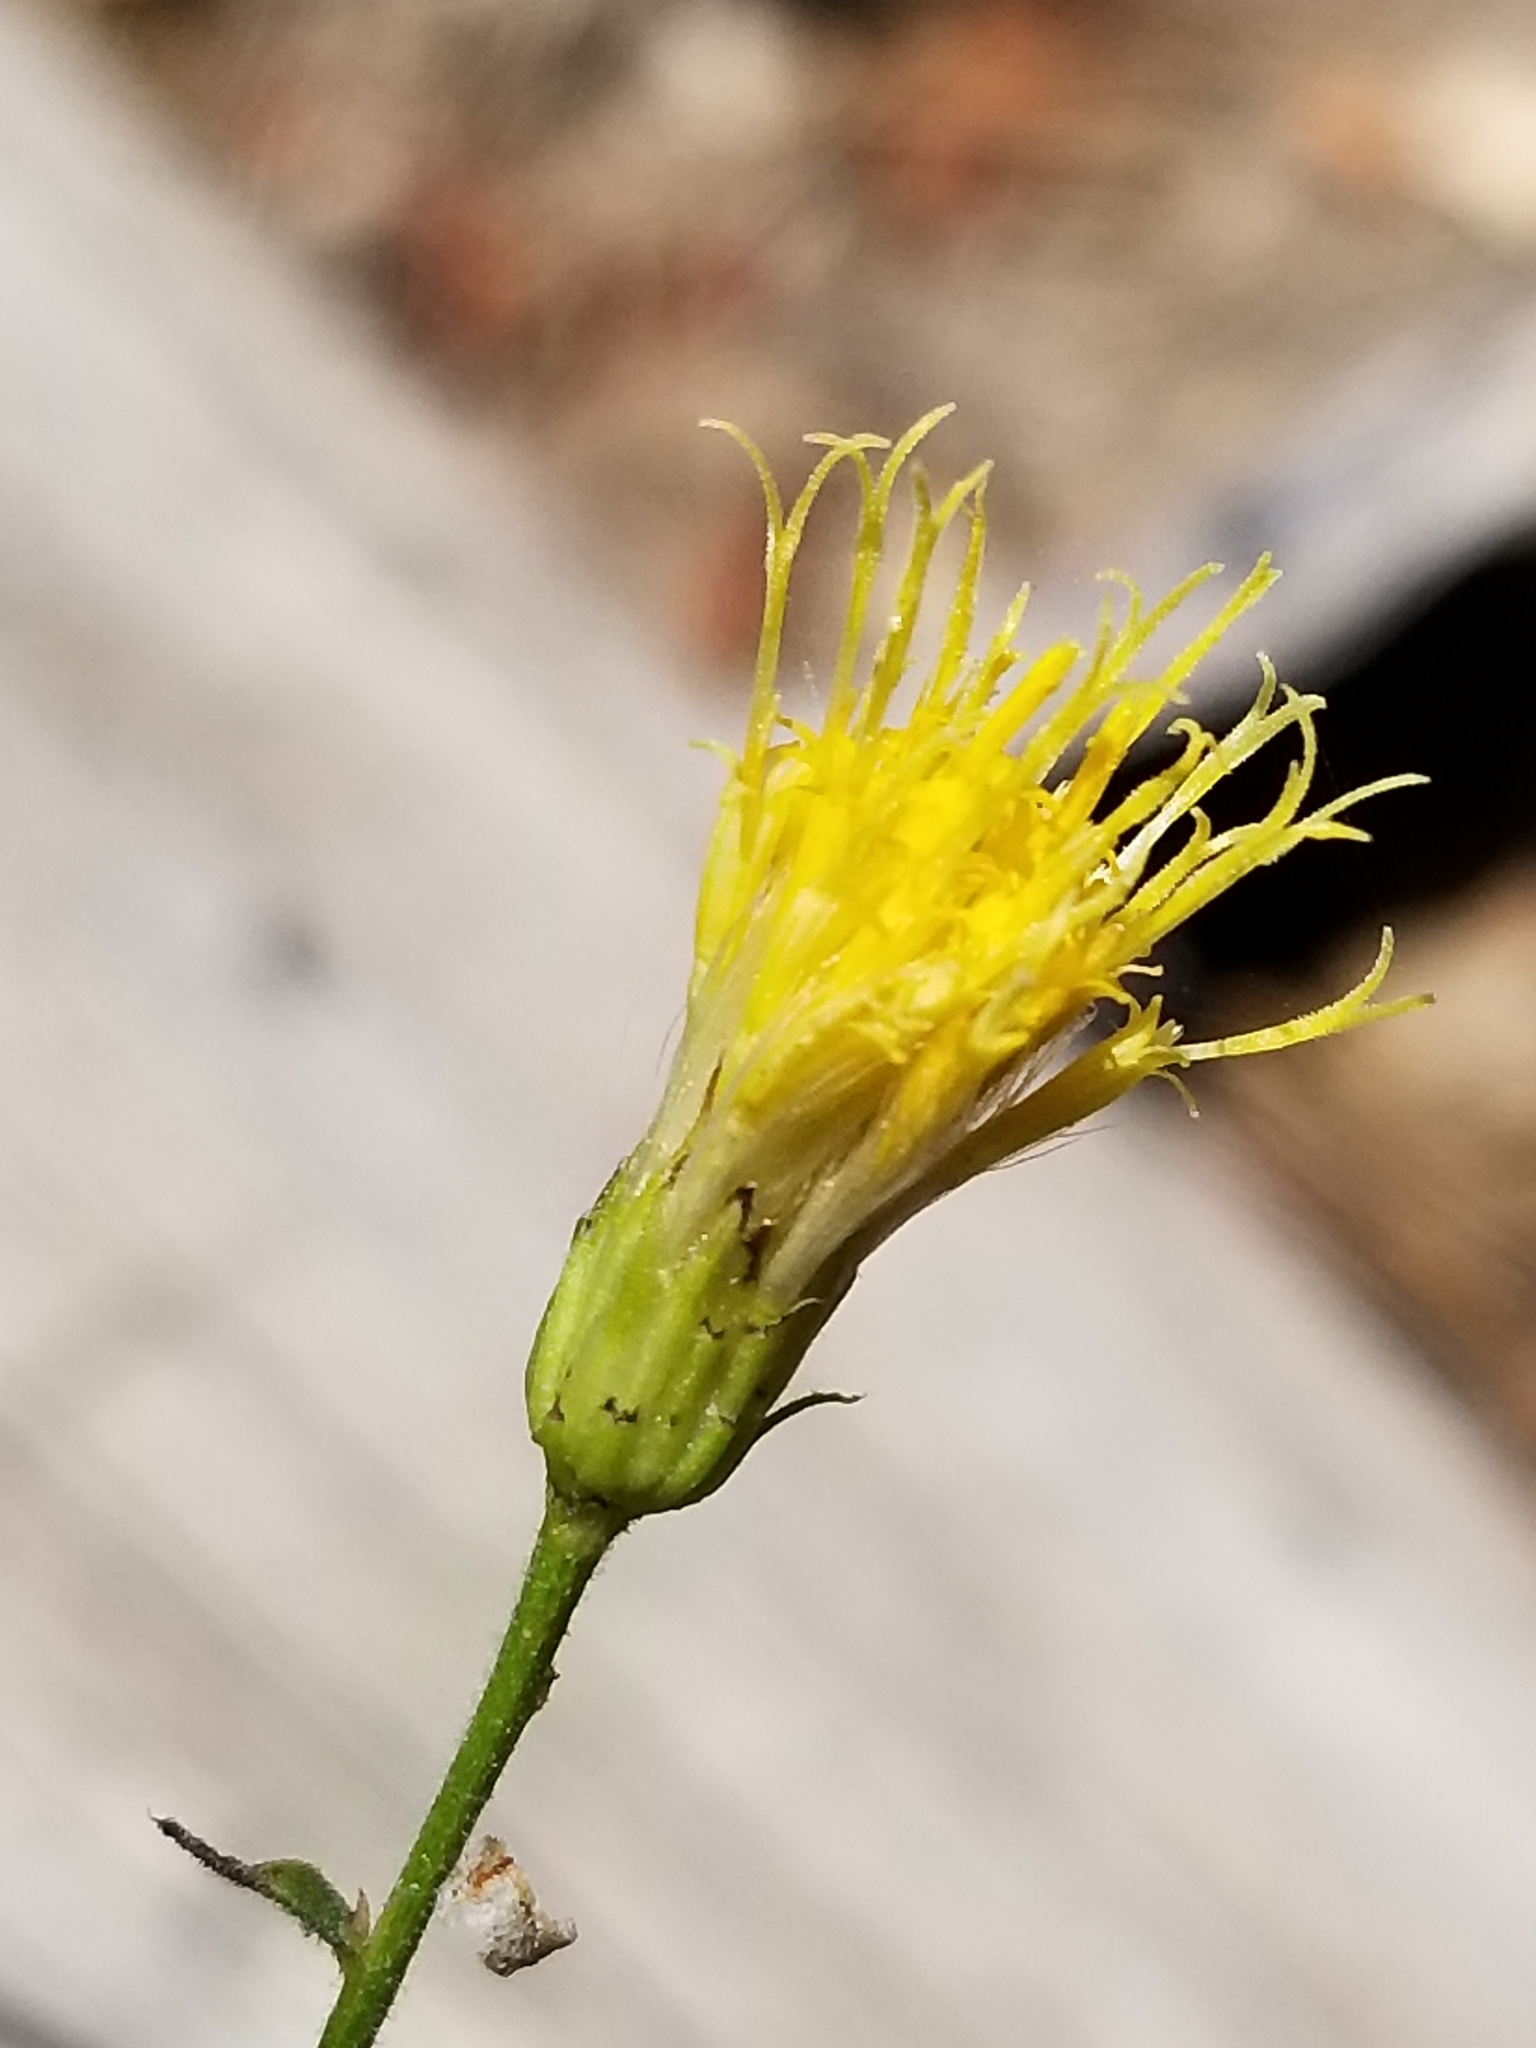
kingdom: Plantae
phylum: Tracheophyta
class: Magnoliopsida
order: Asterales
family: Asteraceae
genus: Eucephalus
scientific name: Eucephalus breweri
